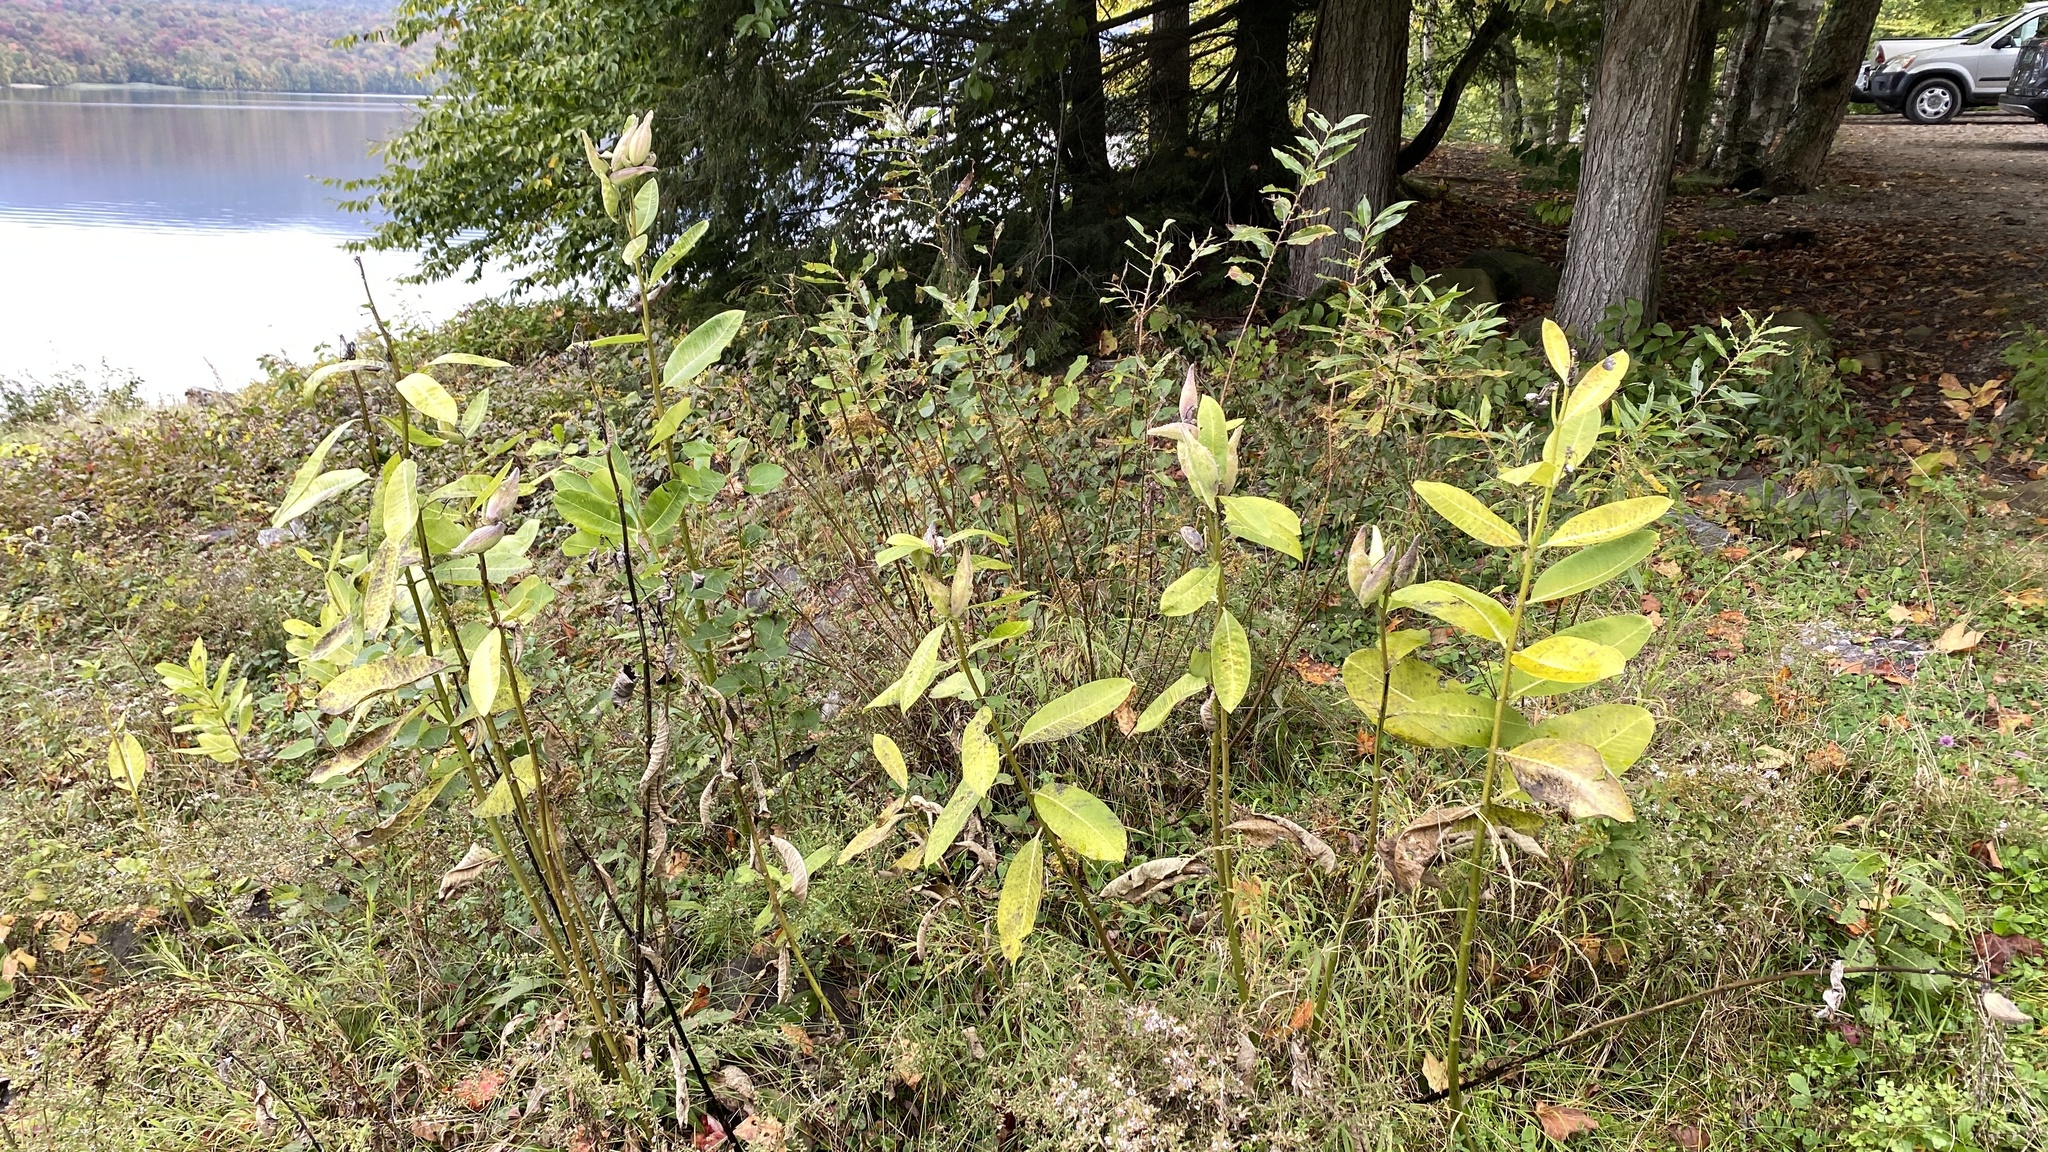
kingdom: Plantae
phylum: Tracheophyta
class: Magnoliopsida
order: Gentianales
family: Apocynaceae
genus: Asclepias
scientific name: Asclepias syriaca
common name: Common milkweed
